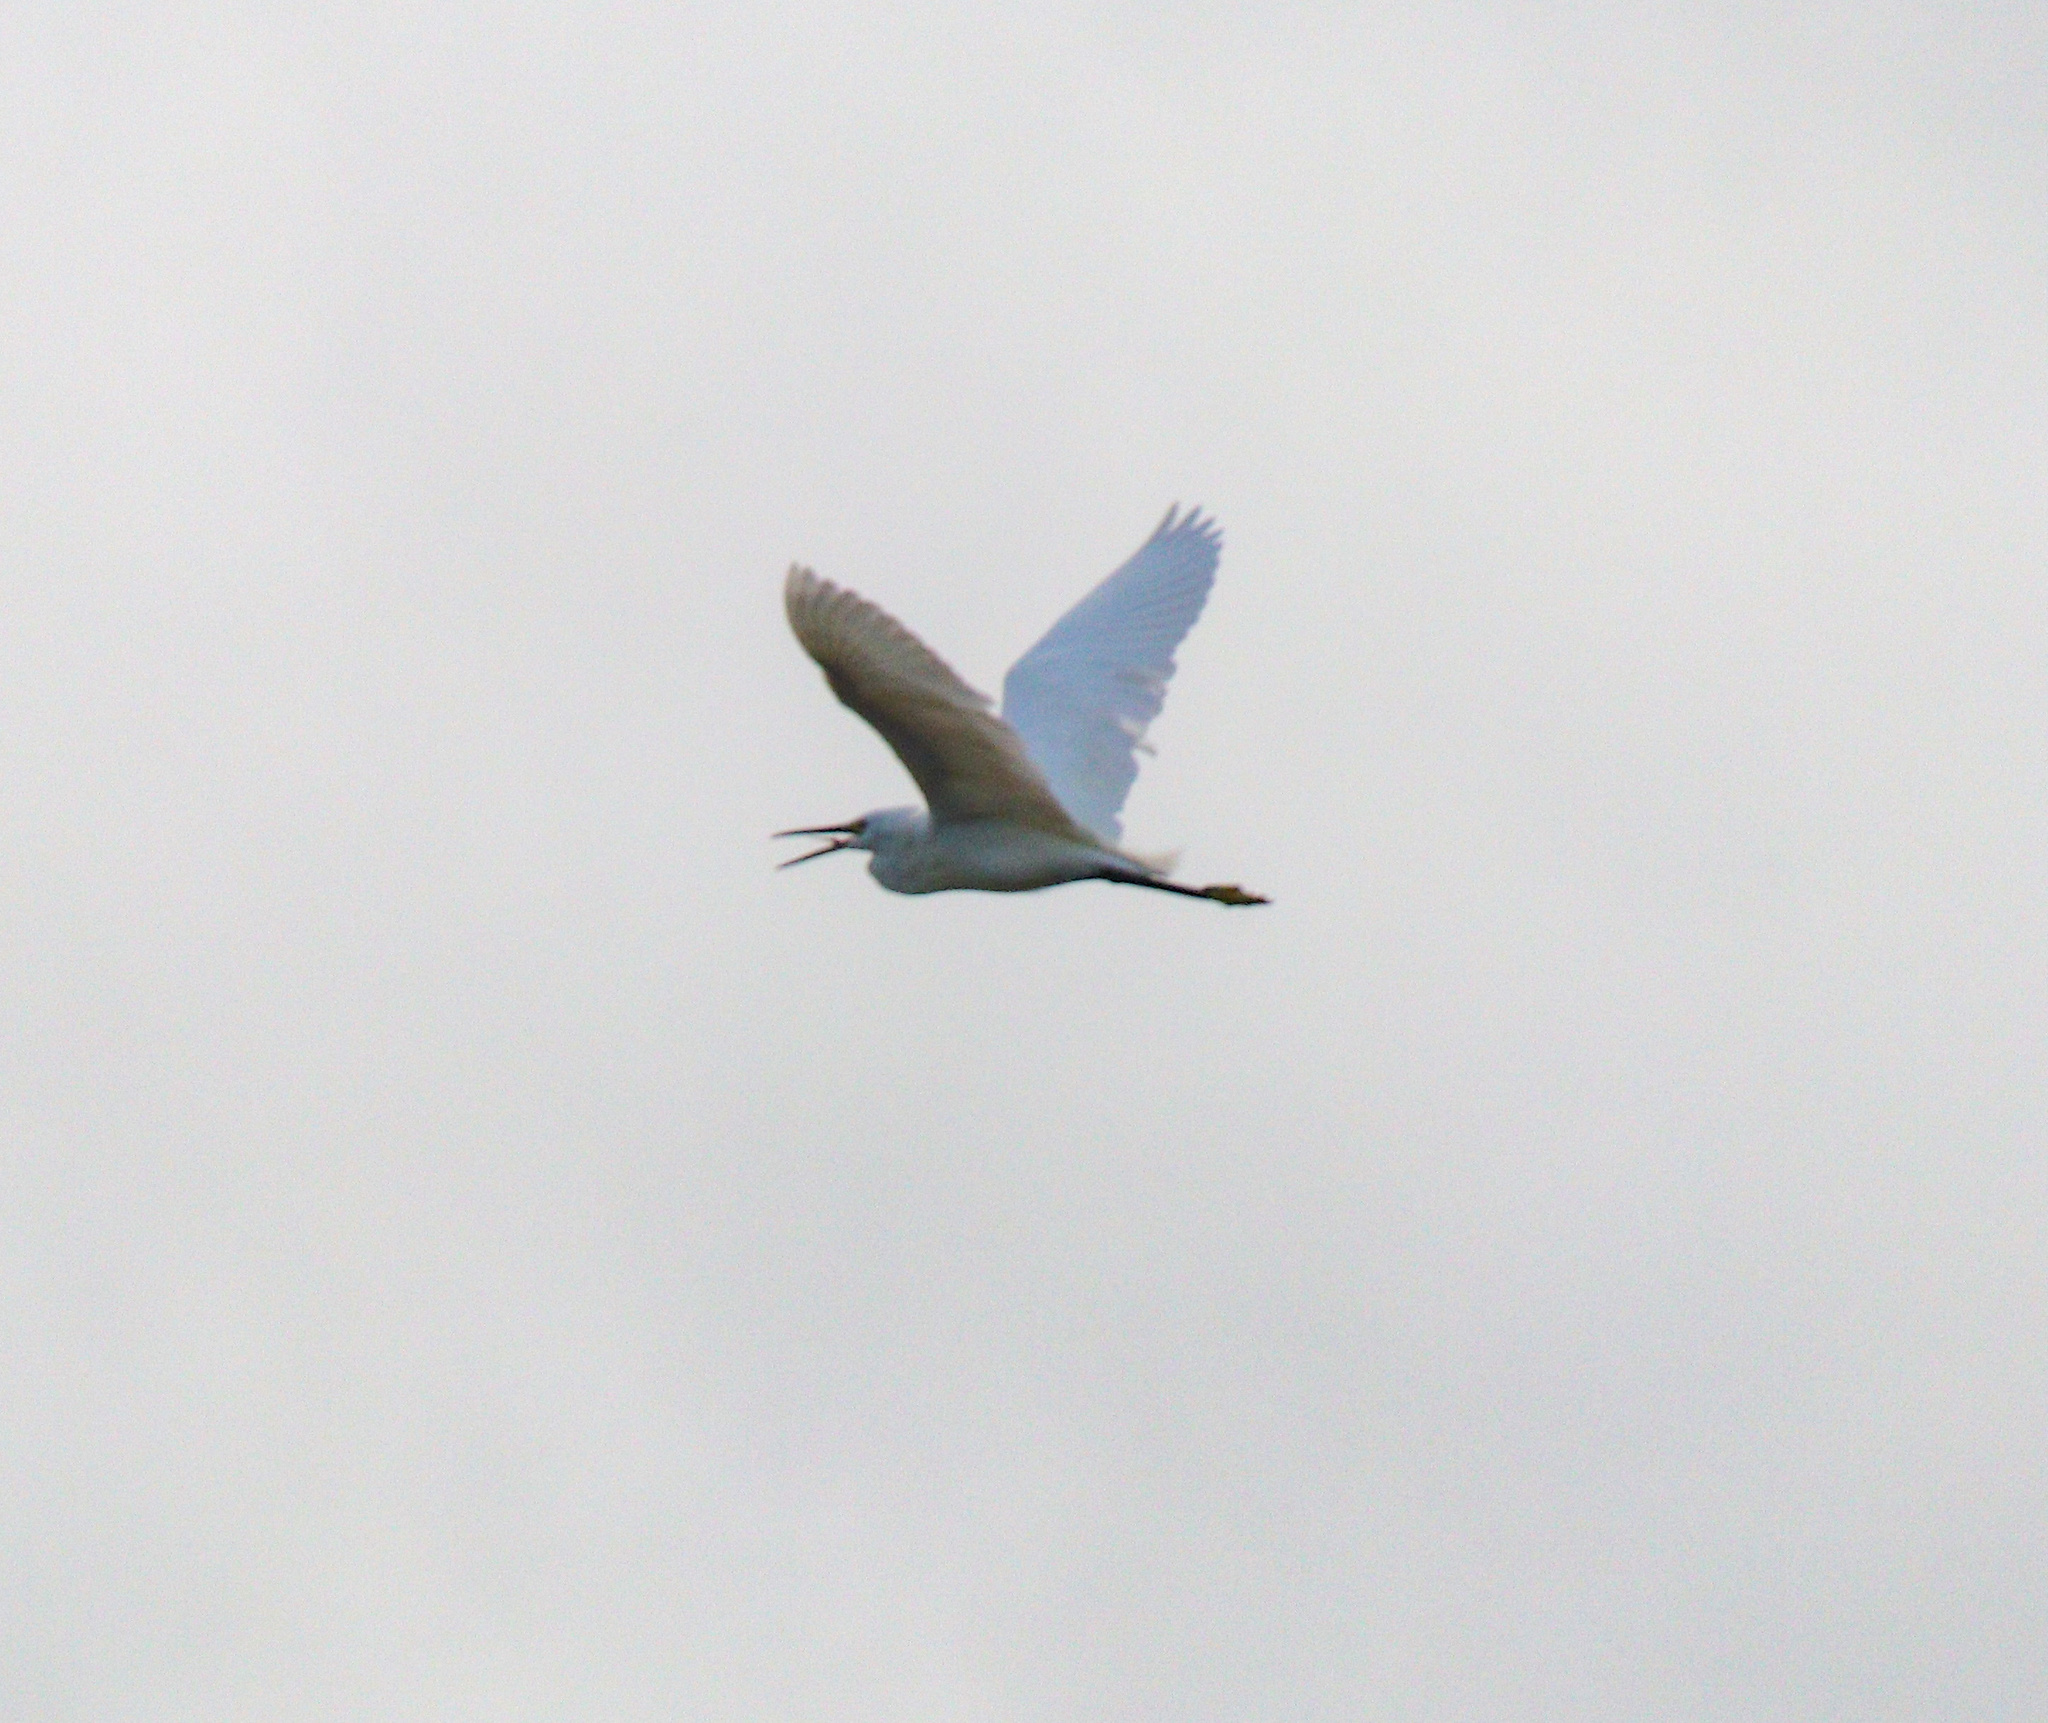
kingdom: Animalia
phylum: Chordata
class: Aves
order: Pelecaniformes
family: Ardeidae
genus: Egretta
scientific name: Egretta garzetta
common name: Little egret
